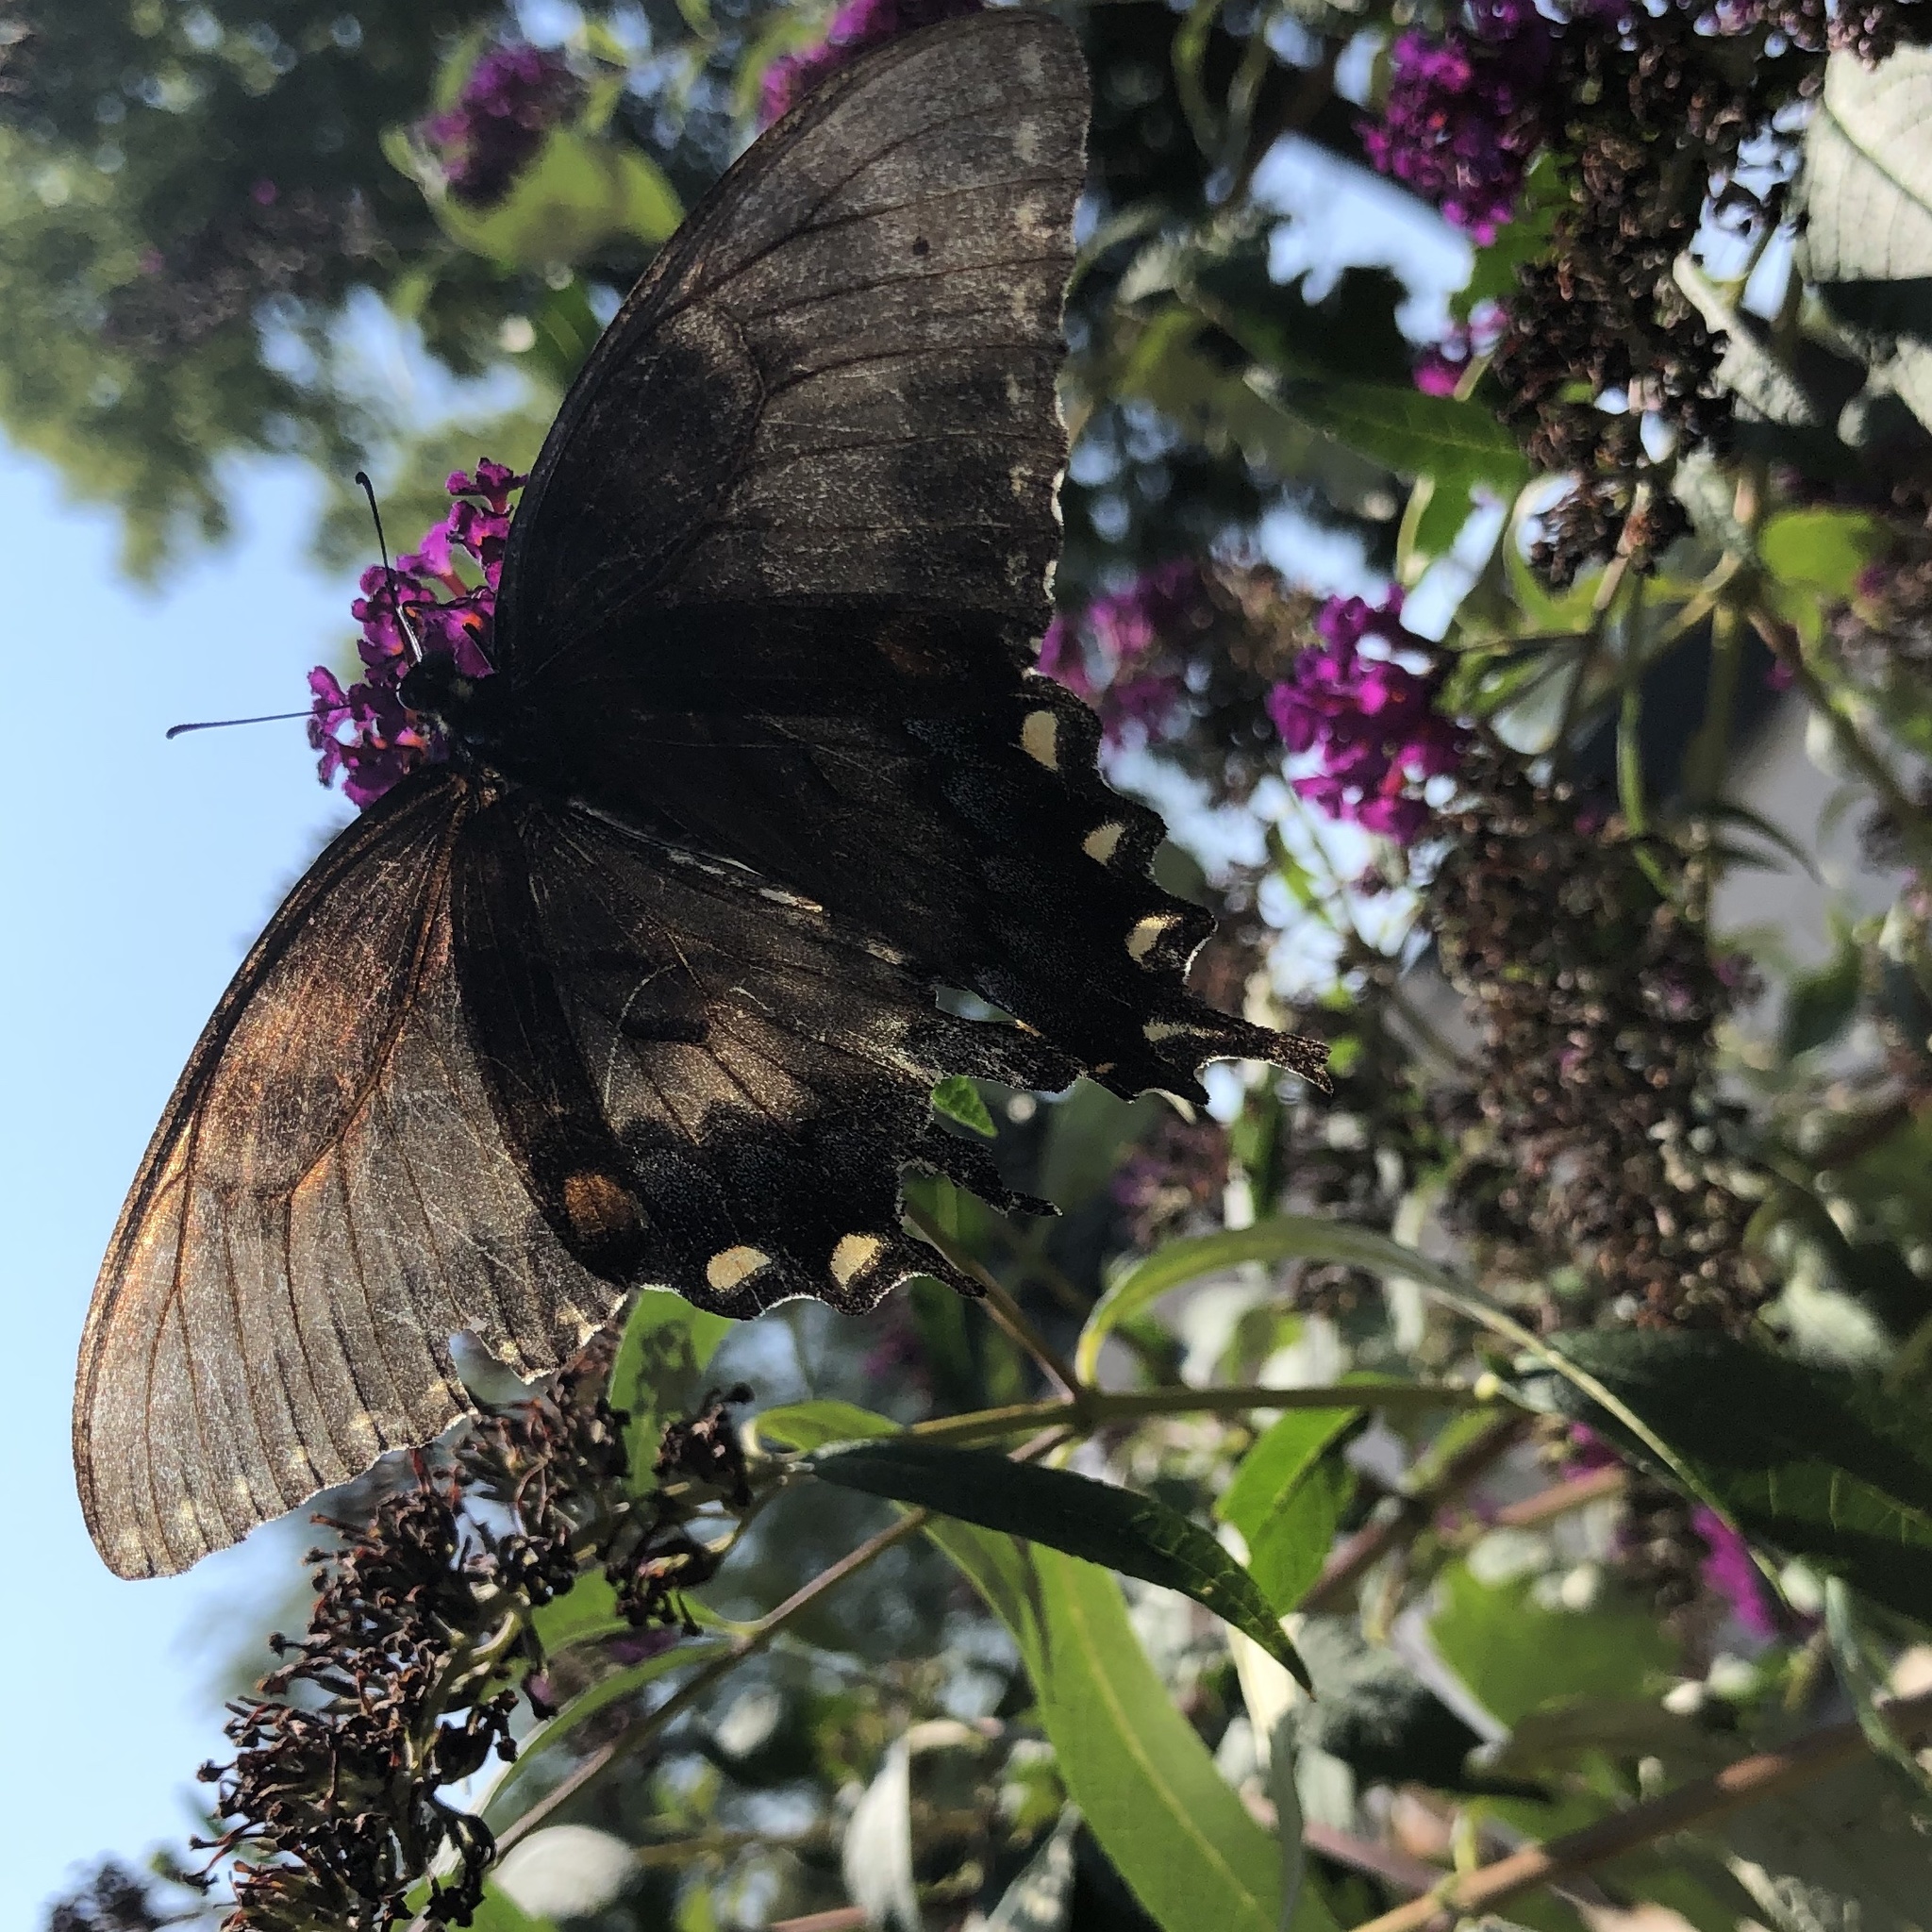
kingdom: Animalia
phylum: Arthropoda
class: Insecta
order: Lepidoptera
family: Papilionidae
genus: Papilio
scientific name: Papilio glaucus
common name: Tiger swallowtail
